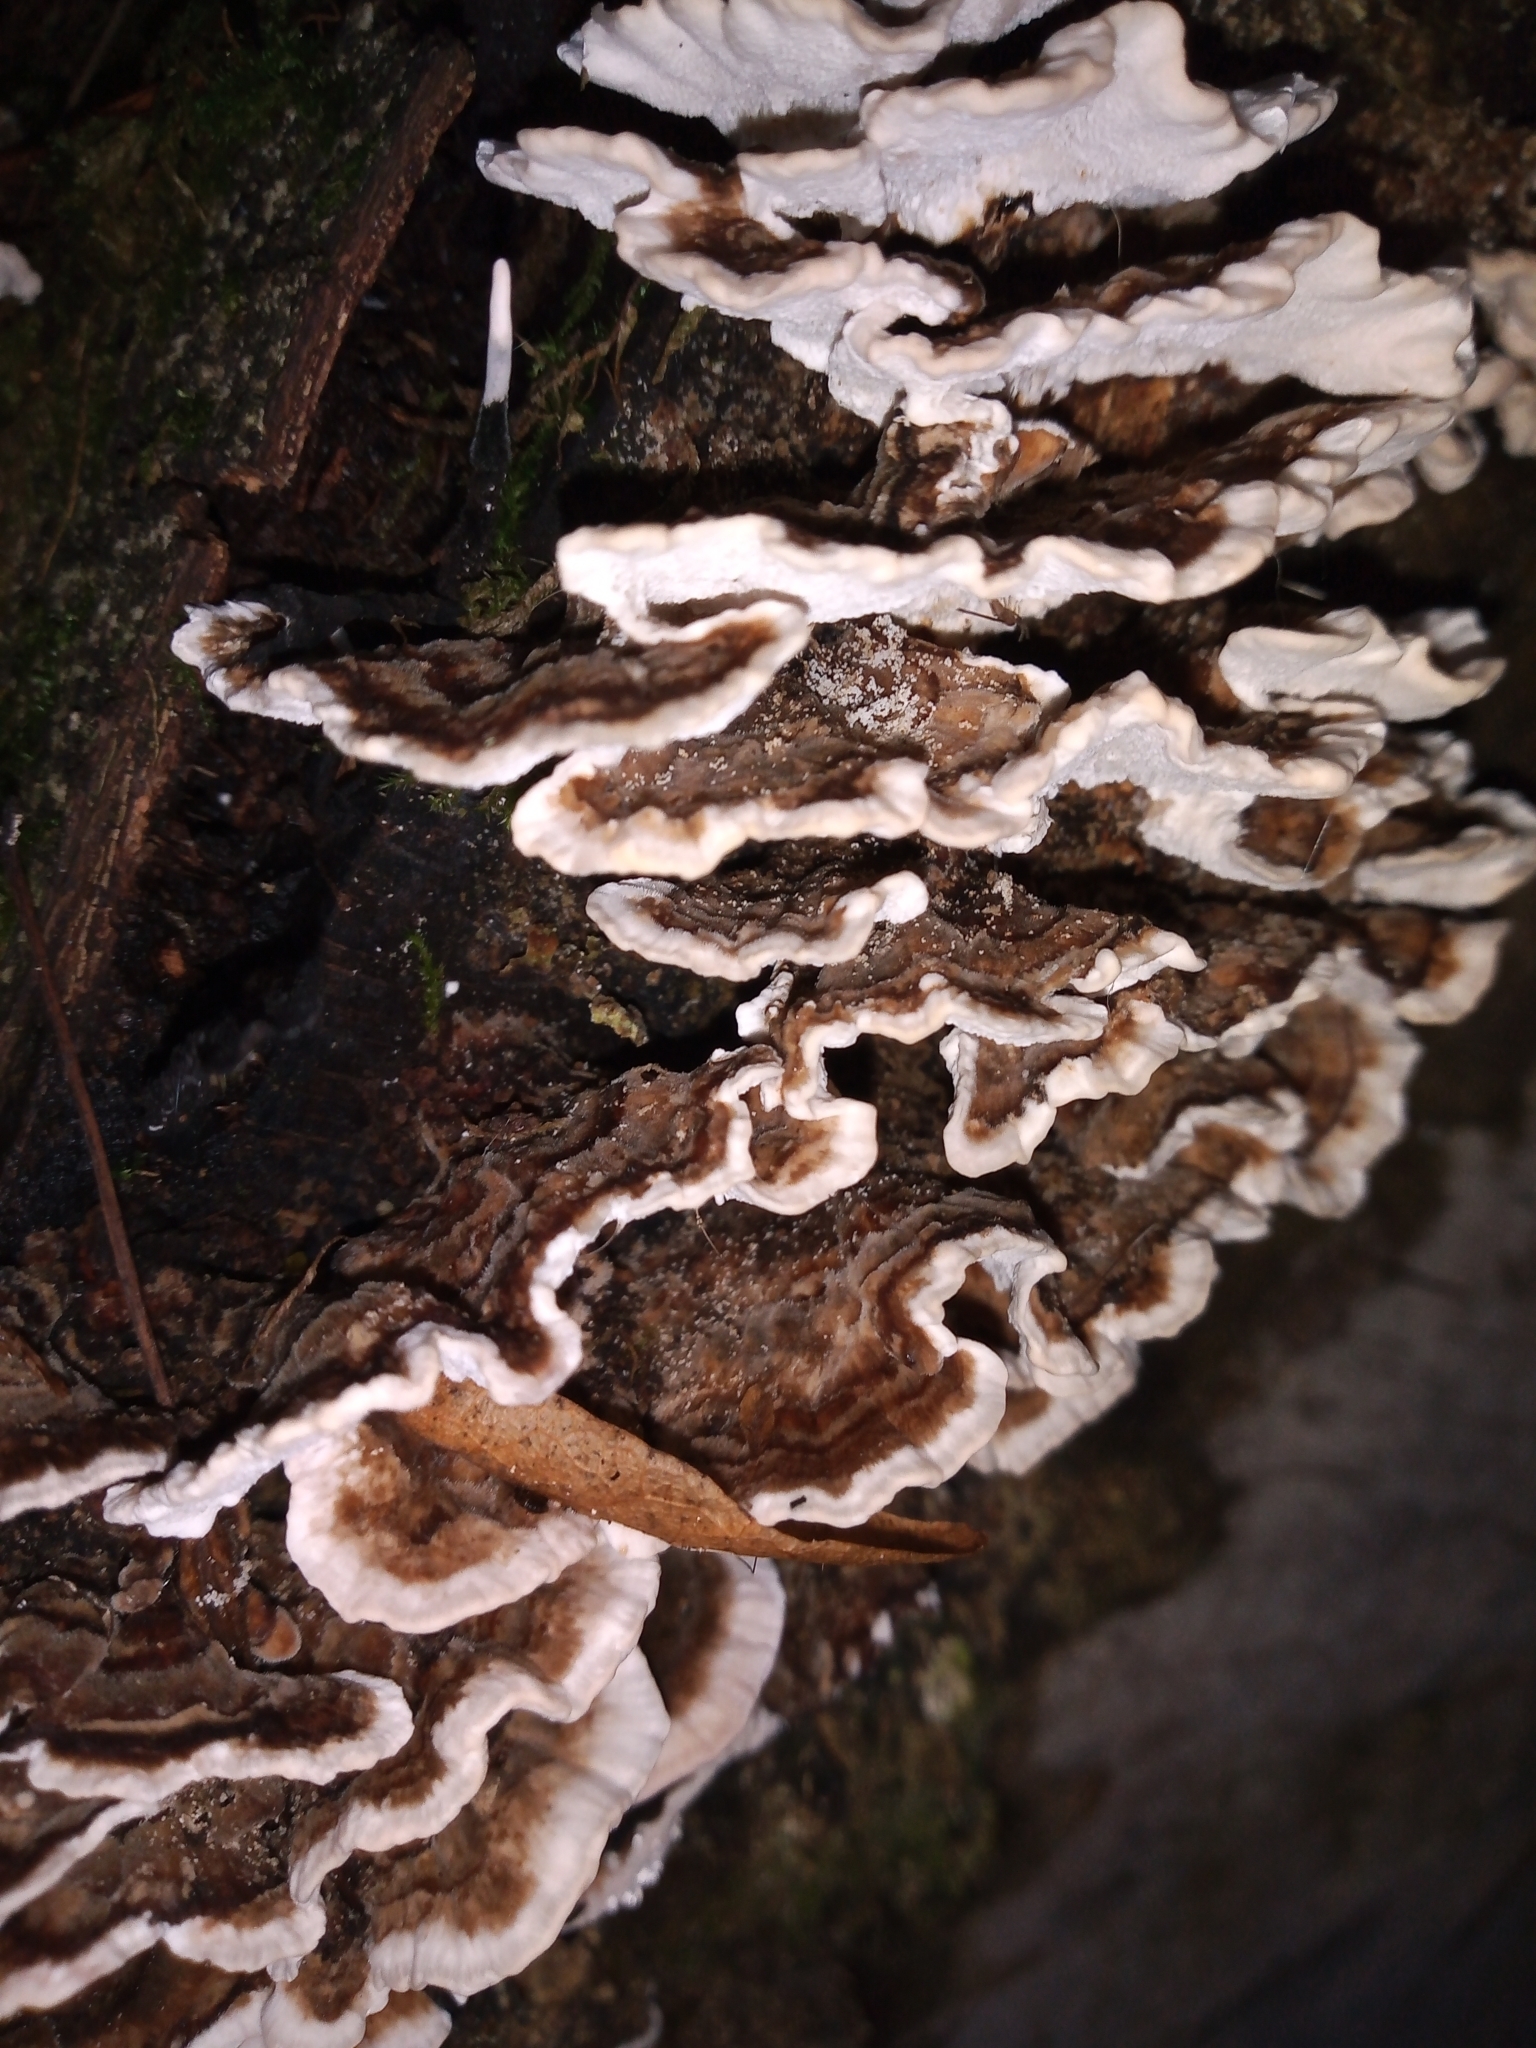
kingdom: Fungi
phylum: Basidiomycota
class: Agaricomycetes
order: Polyporales
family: Polyporaceae
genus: Trametes
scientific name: Trametes versicolor
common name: Turkeytail
